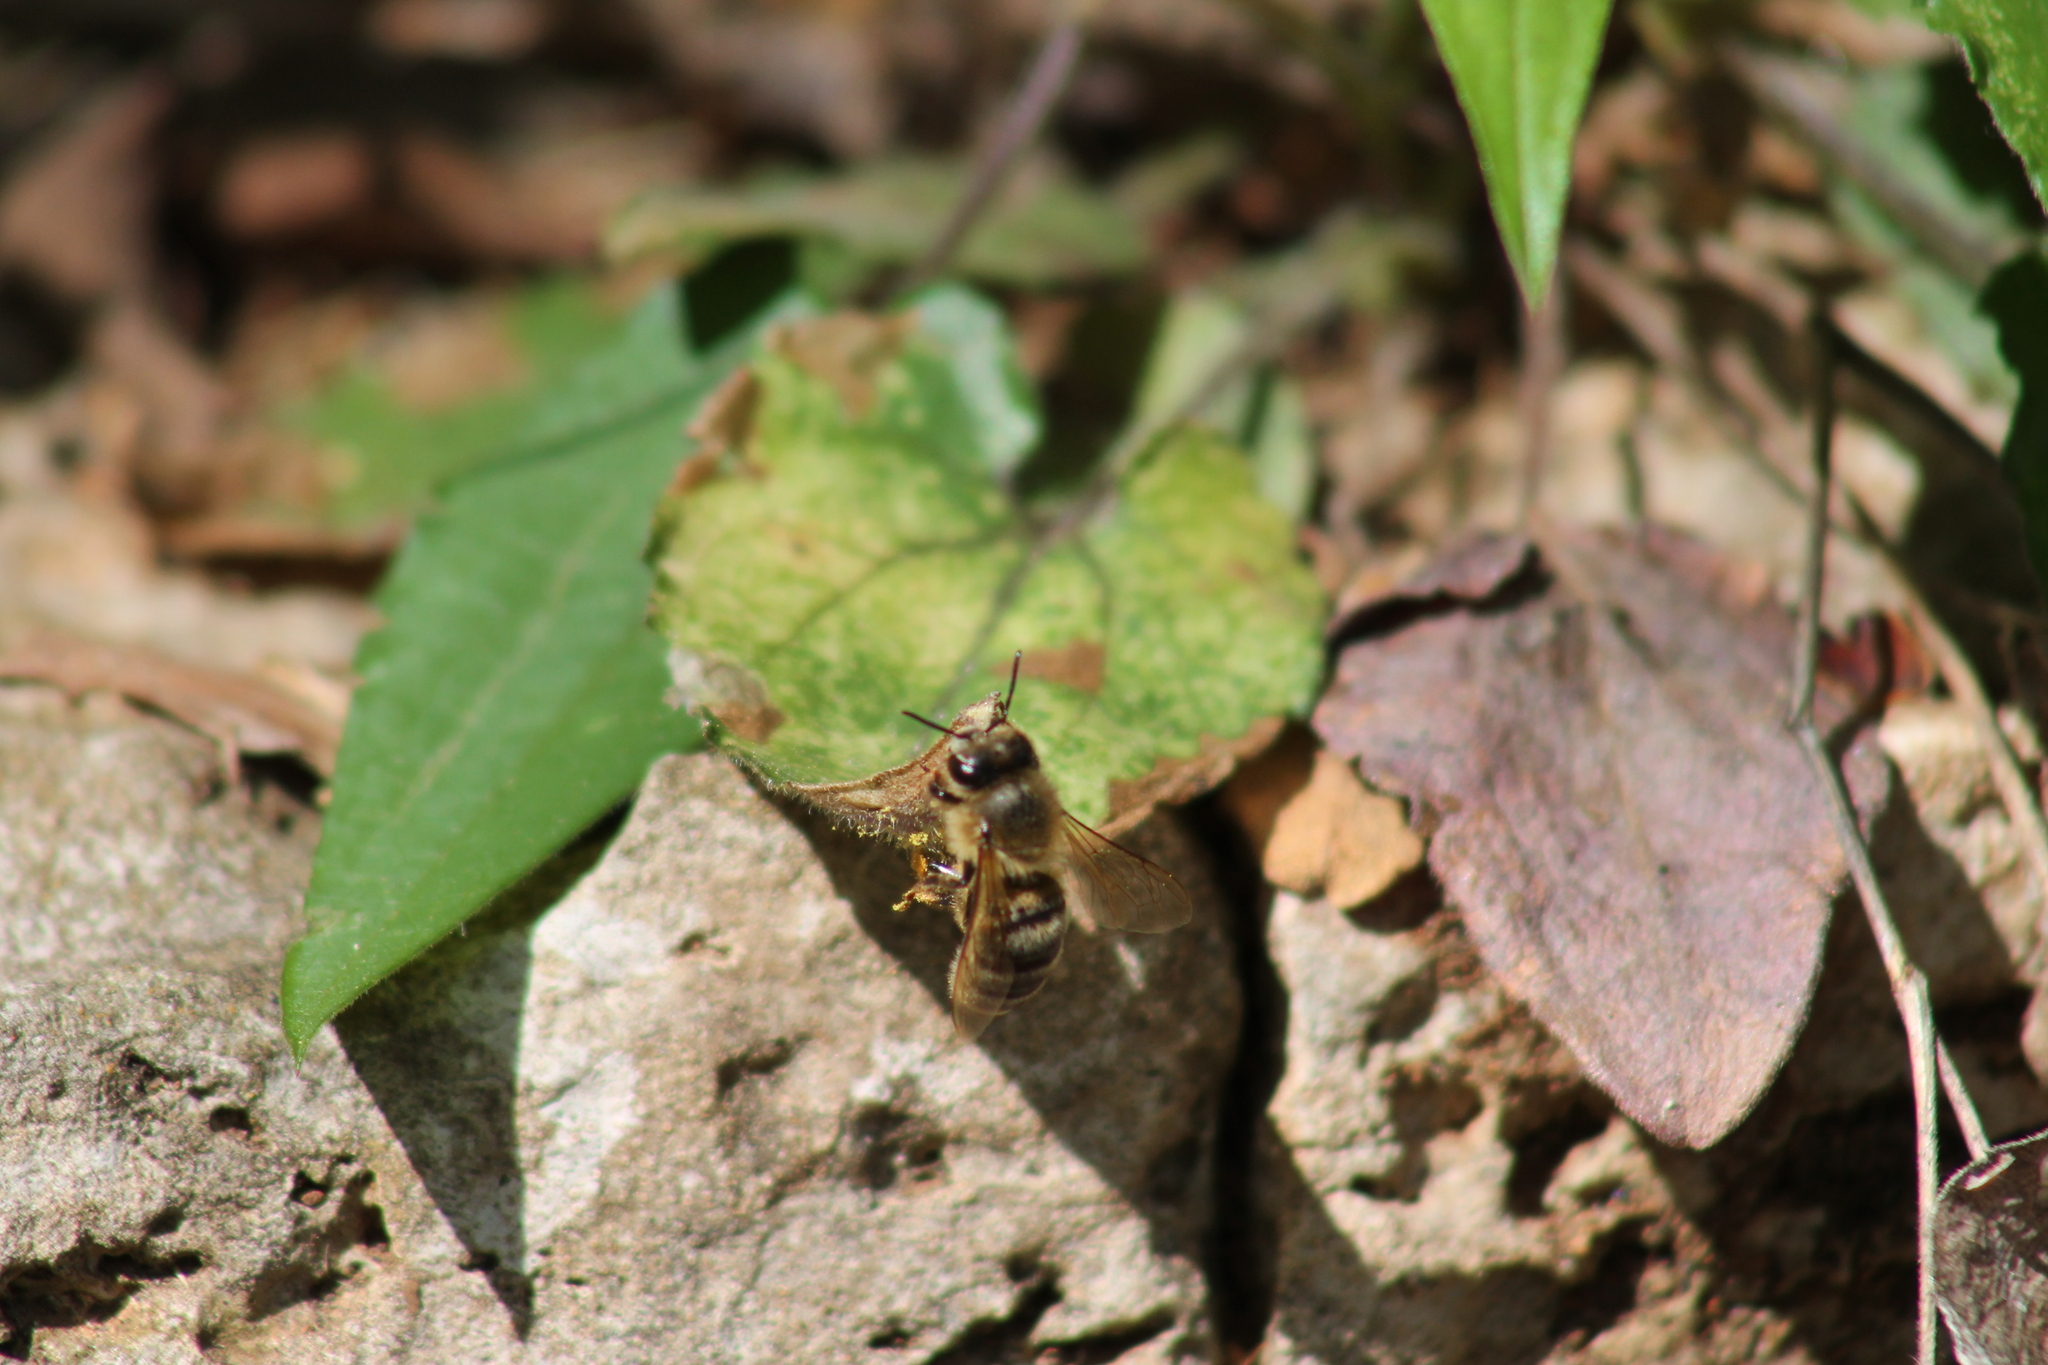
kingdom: Animalia
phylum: Arthropoda
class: Insecta
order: Hymenoptera
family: Apidae
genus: Apis
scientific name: Apis mellifera
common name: Honey bee
